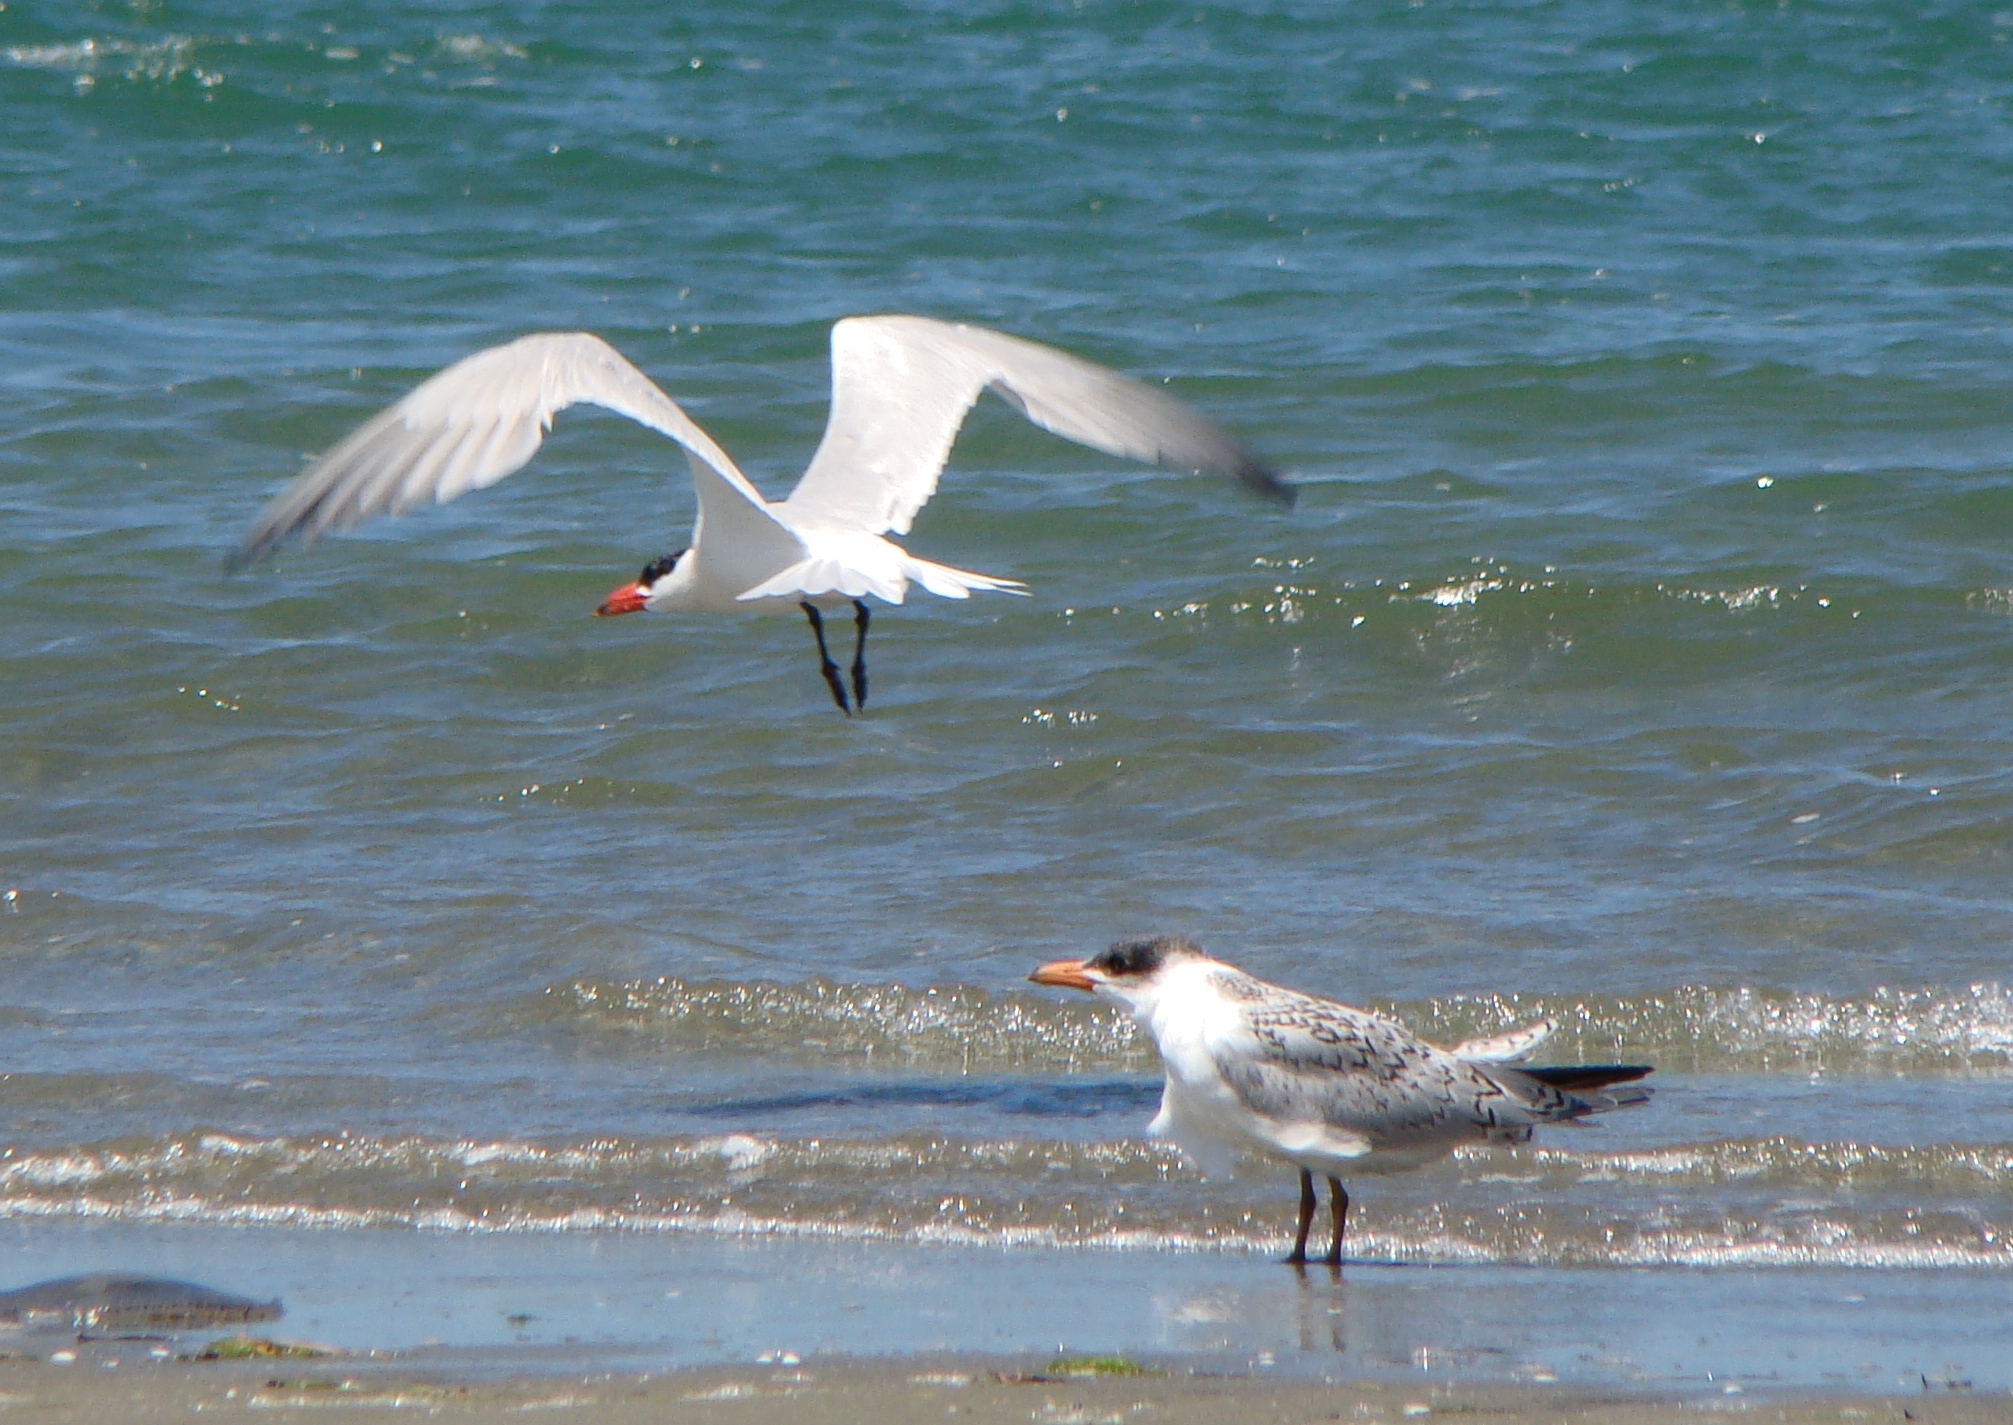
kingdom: Animalia
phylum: Chordata
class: Aves
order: Charadriiformes
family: Laridae
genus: Hydroprogne
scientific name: Hydroprogne caspia
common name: Caspian tern
